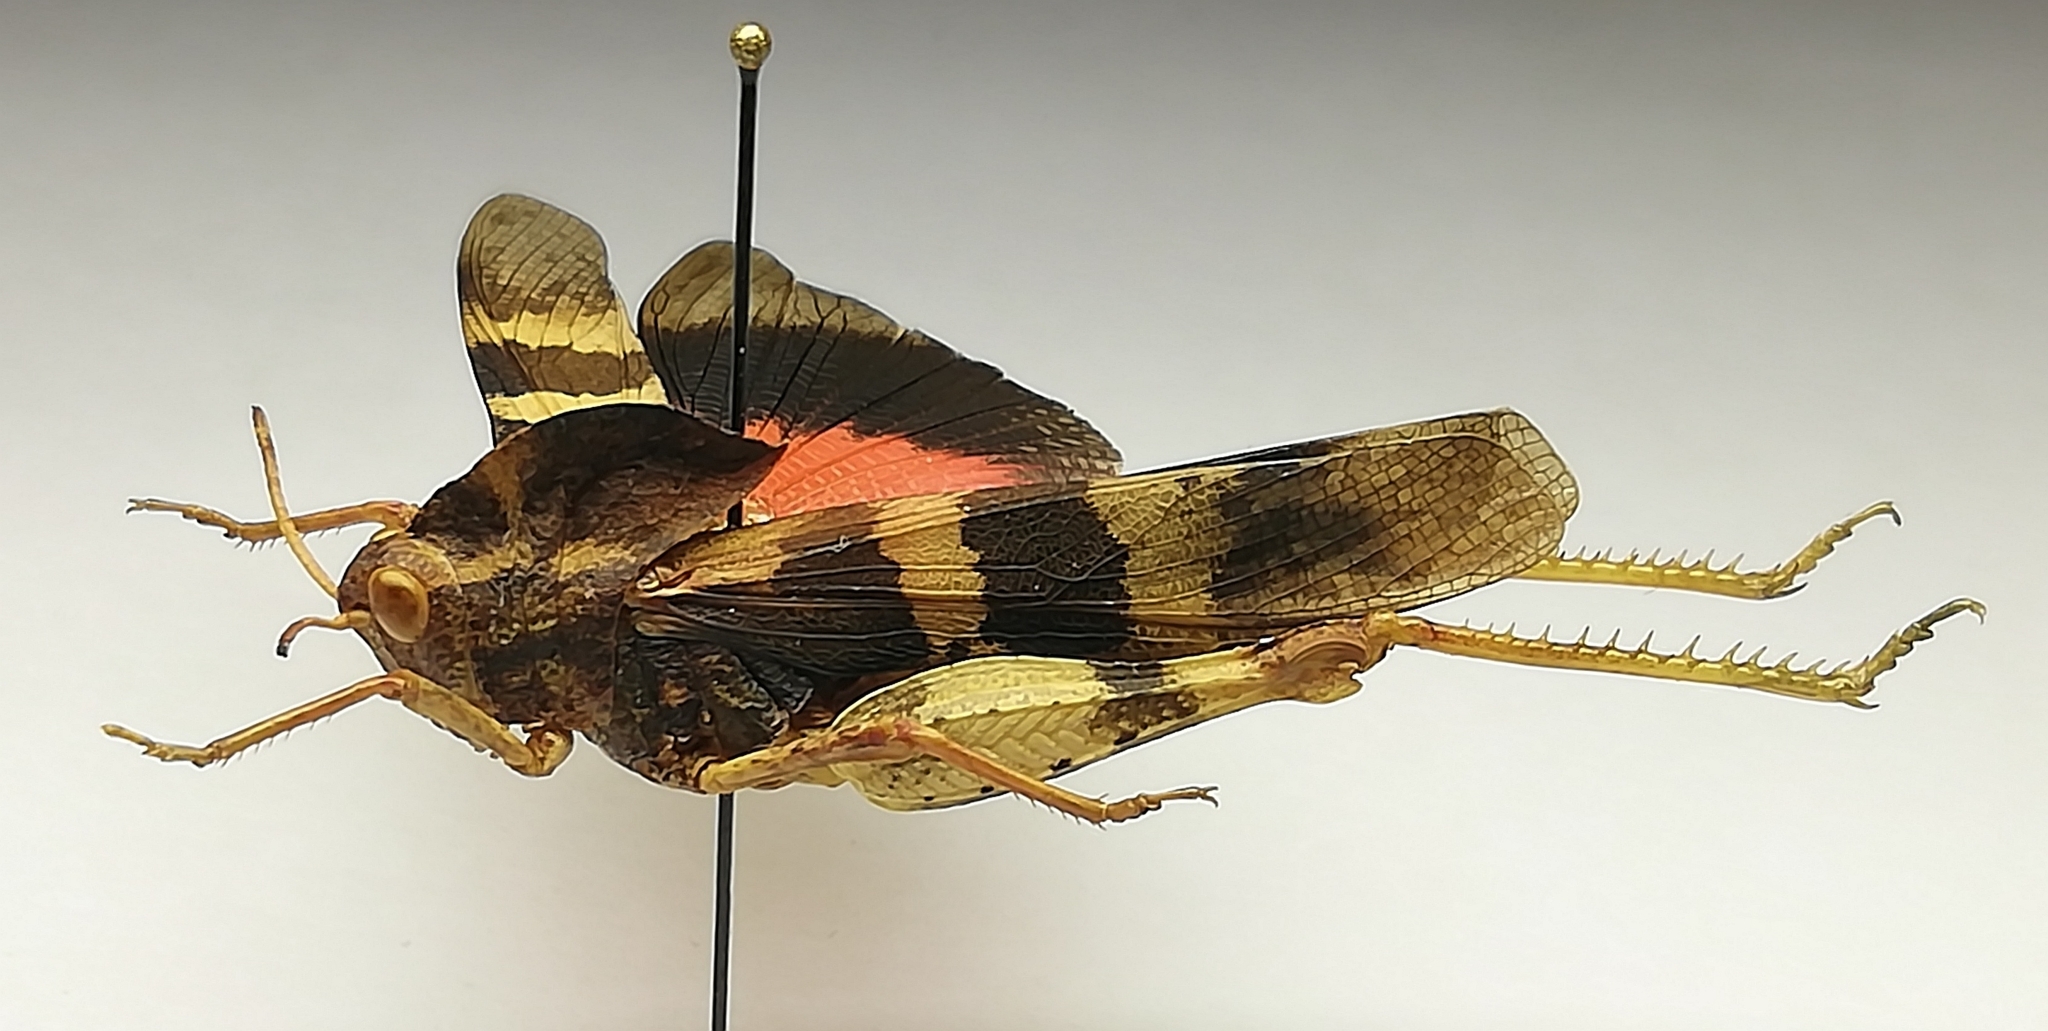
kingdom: Animalia
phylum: Arthropoda
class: Insecta
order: Orthoptera
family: Acrididae
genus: Pyrgodera
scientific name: Pyrgodera armata
